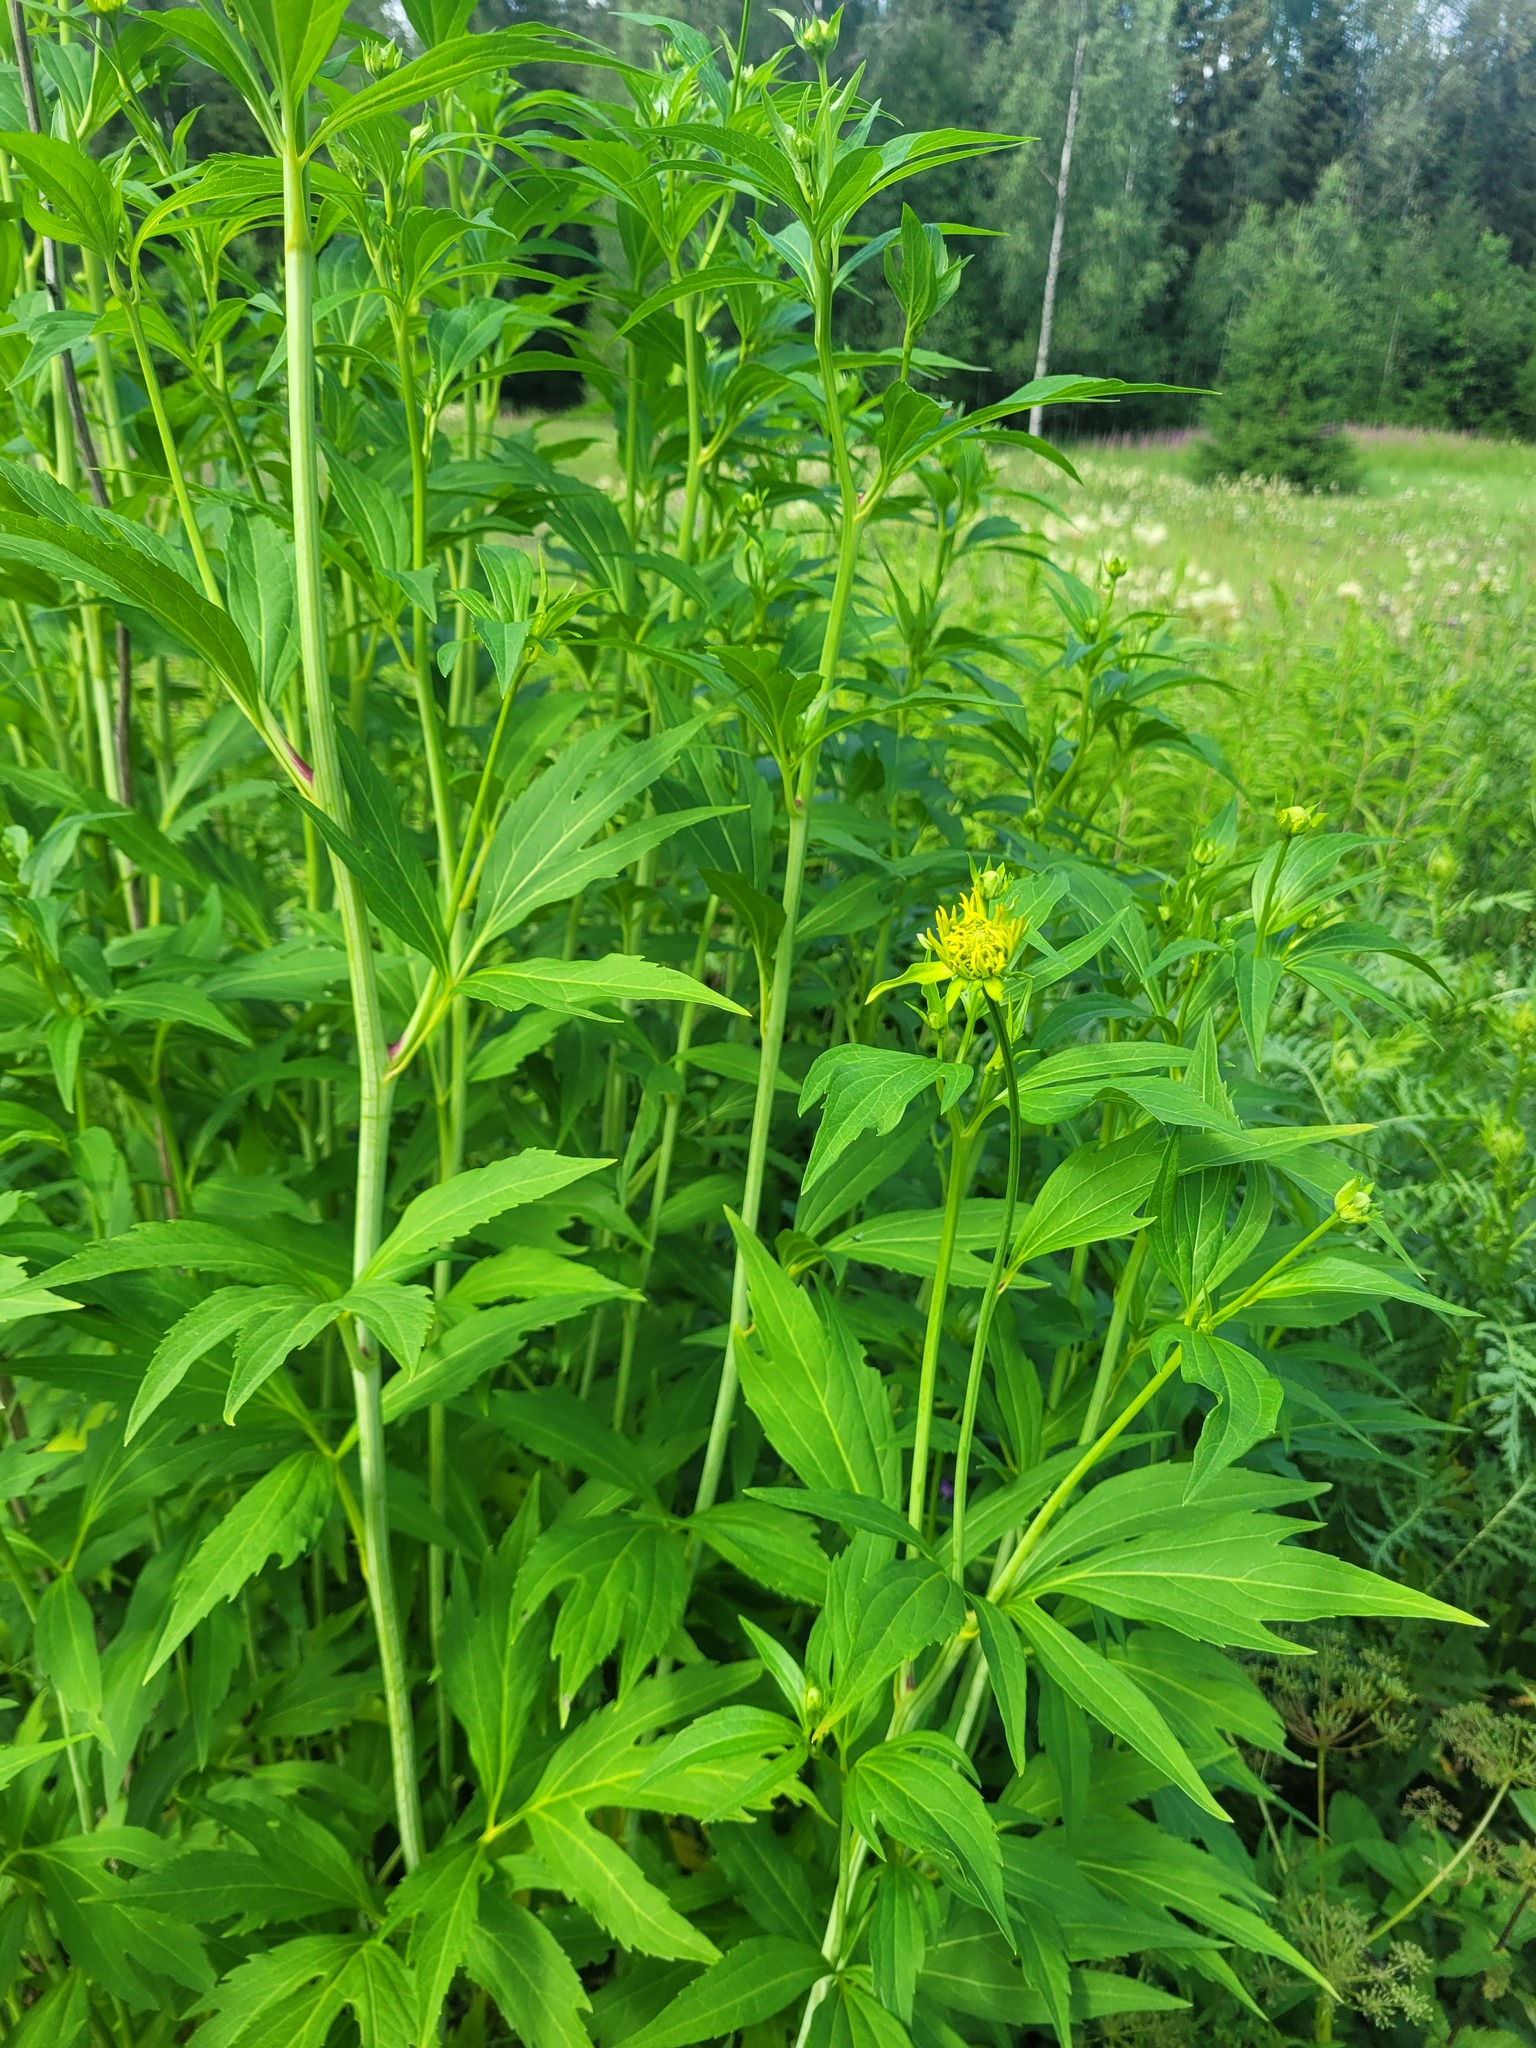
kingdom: Plantae
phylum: Tracheophyta
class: Magnoliopsida
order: Asterales
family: Asteraceae
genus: Rudbeckia
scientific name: Rudbeckia laciniata
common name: Coneflower
